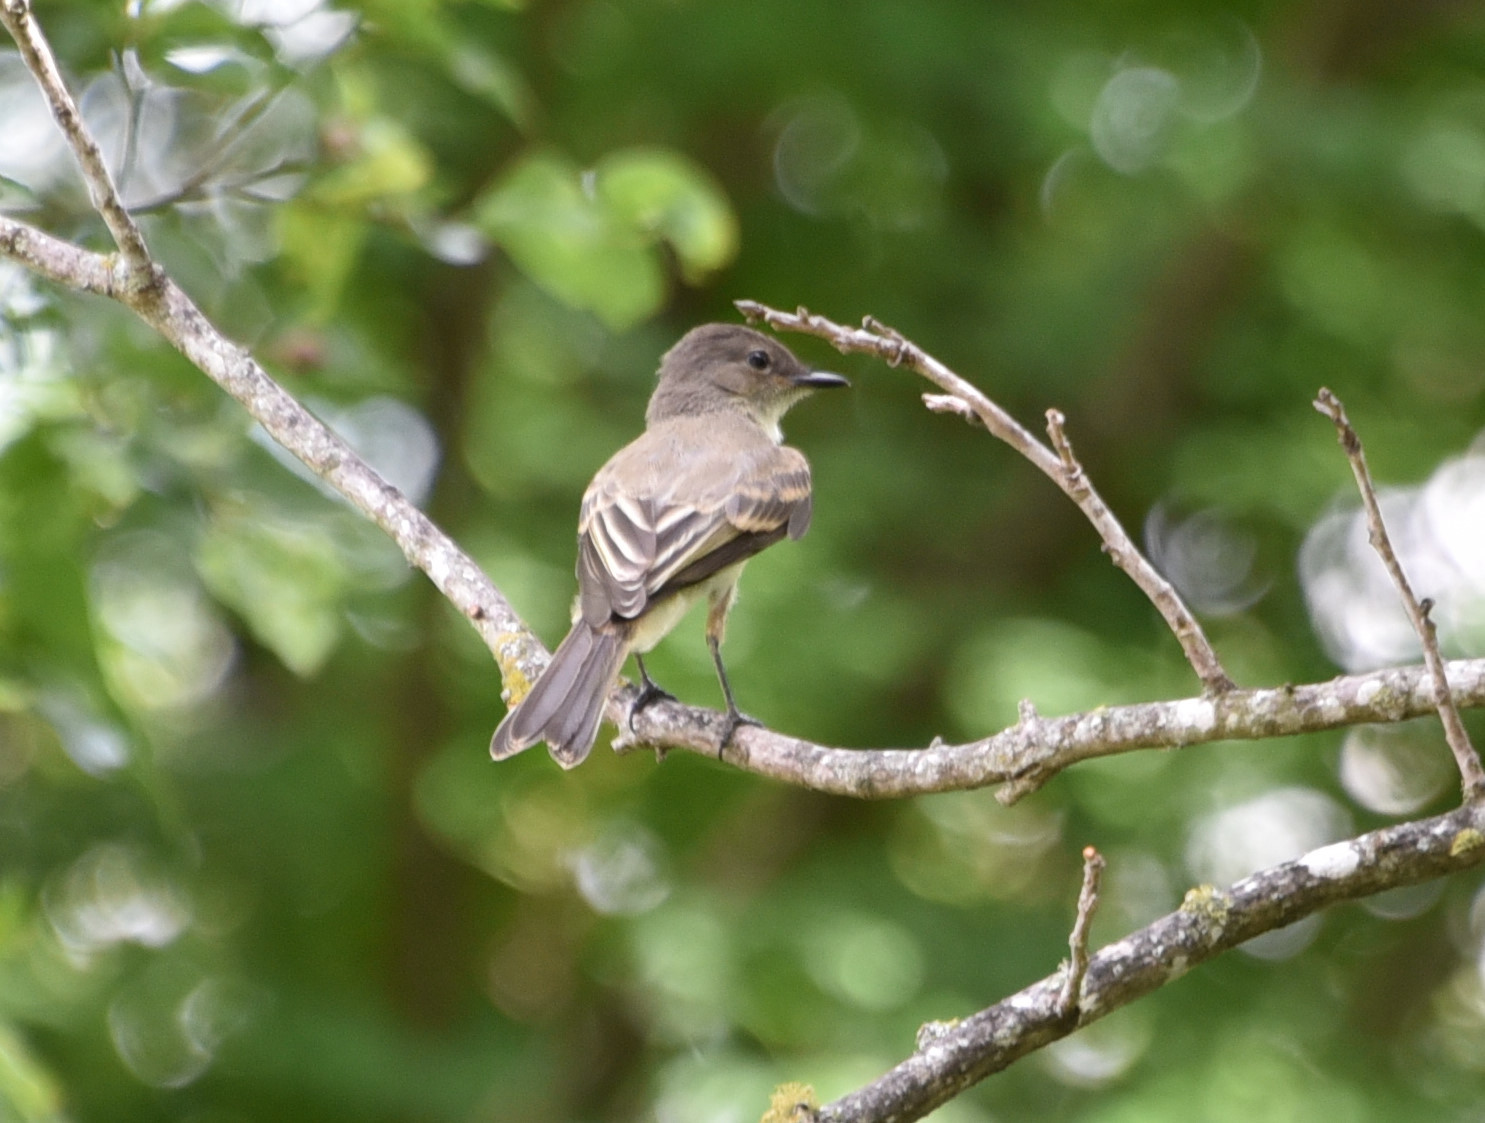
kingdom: Animalia
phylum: Chordata
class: Aves
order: Passeriformes
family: Tyrannidae
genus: Sayornis
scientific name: Sayornis phoebe
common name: Eastern phoebe
